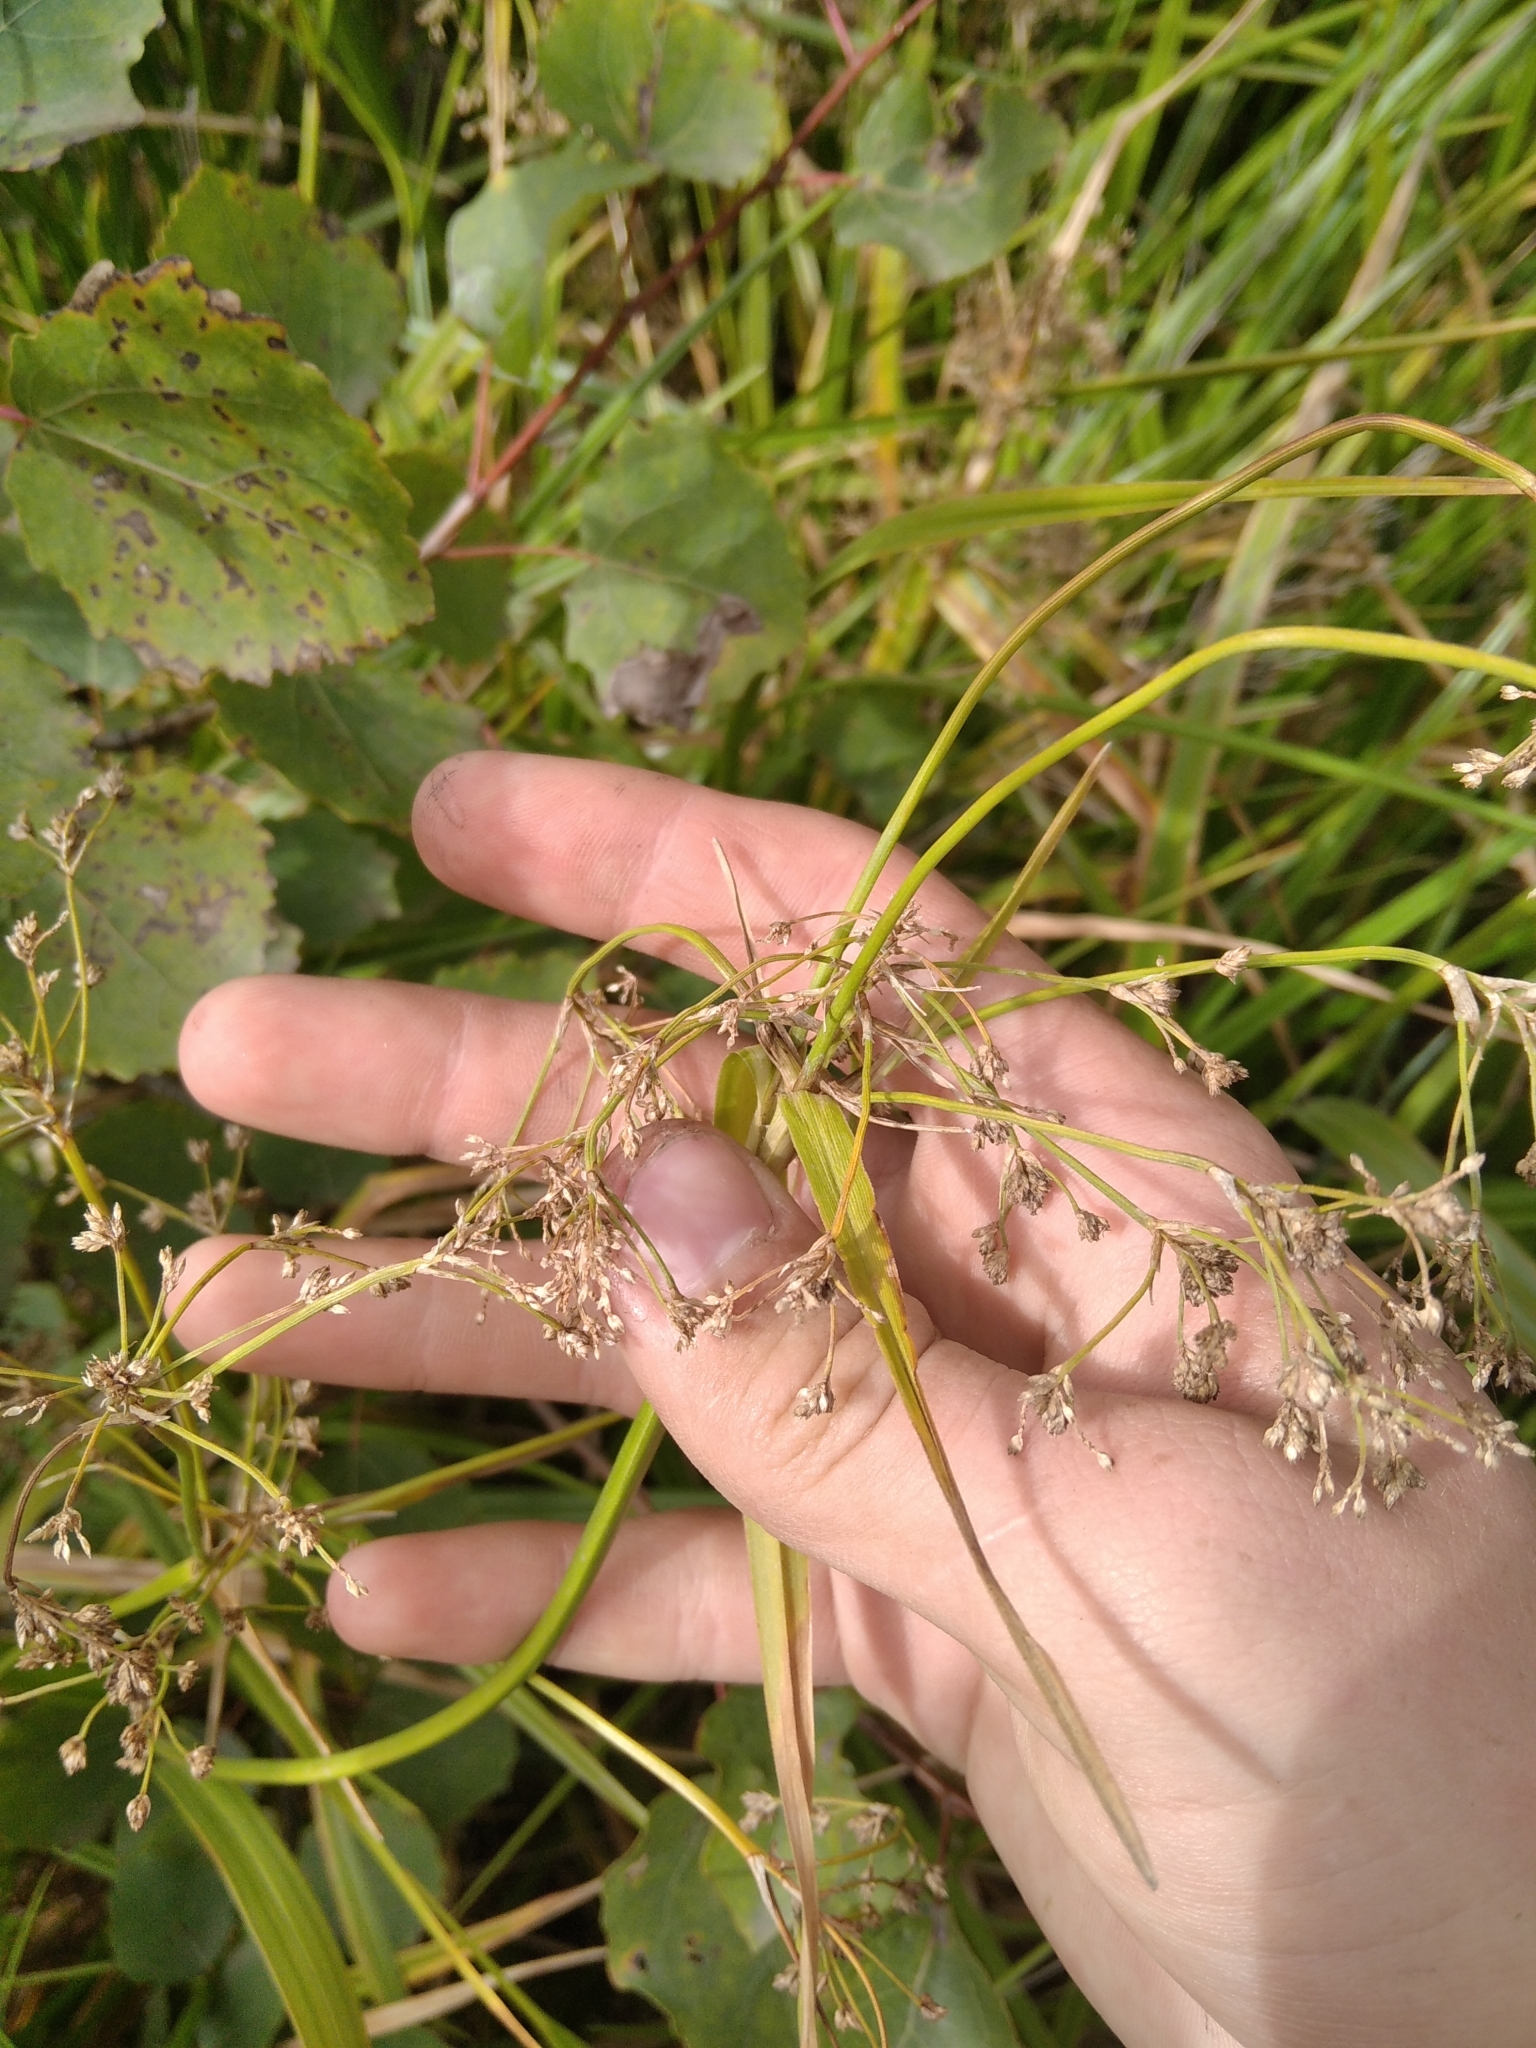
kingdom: Plantae
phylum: Tracheophyta
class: Liliopsida
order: Poales
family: Cyperaceae
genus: Scirpus
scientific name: Scirpus sylvaticus
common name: Wood club-rush
